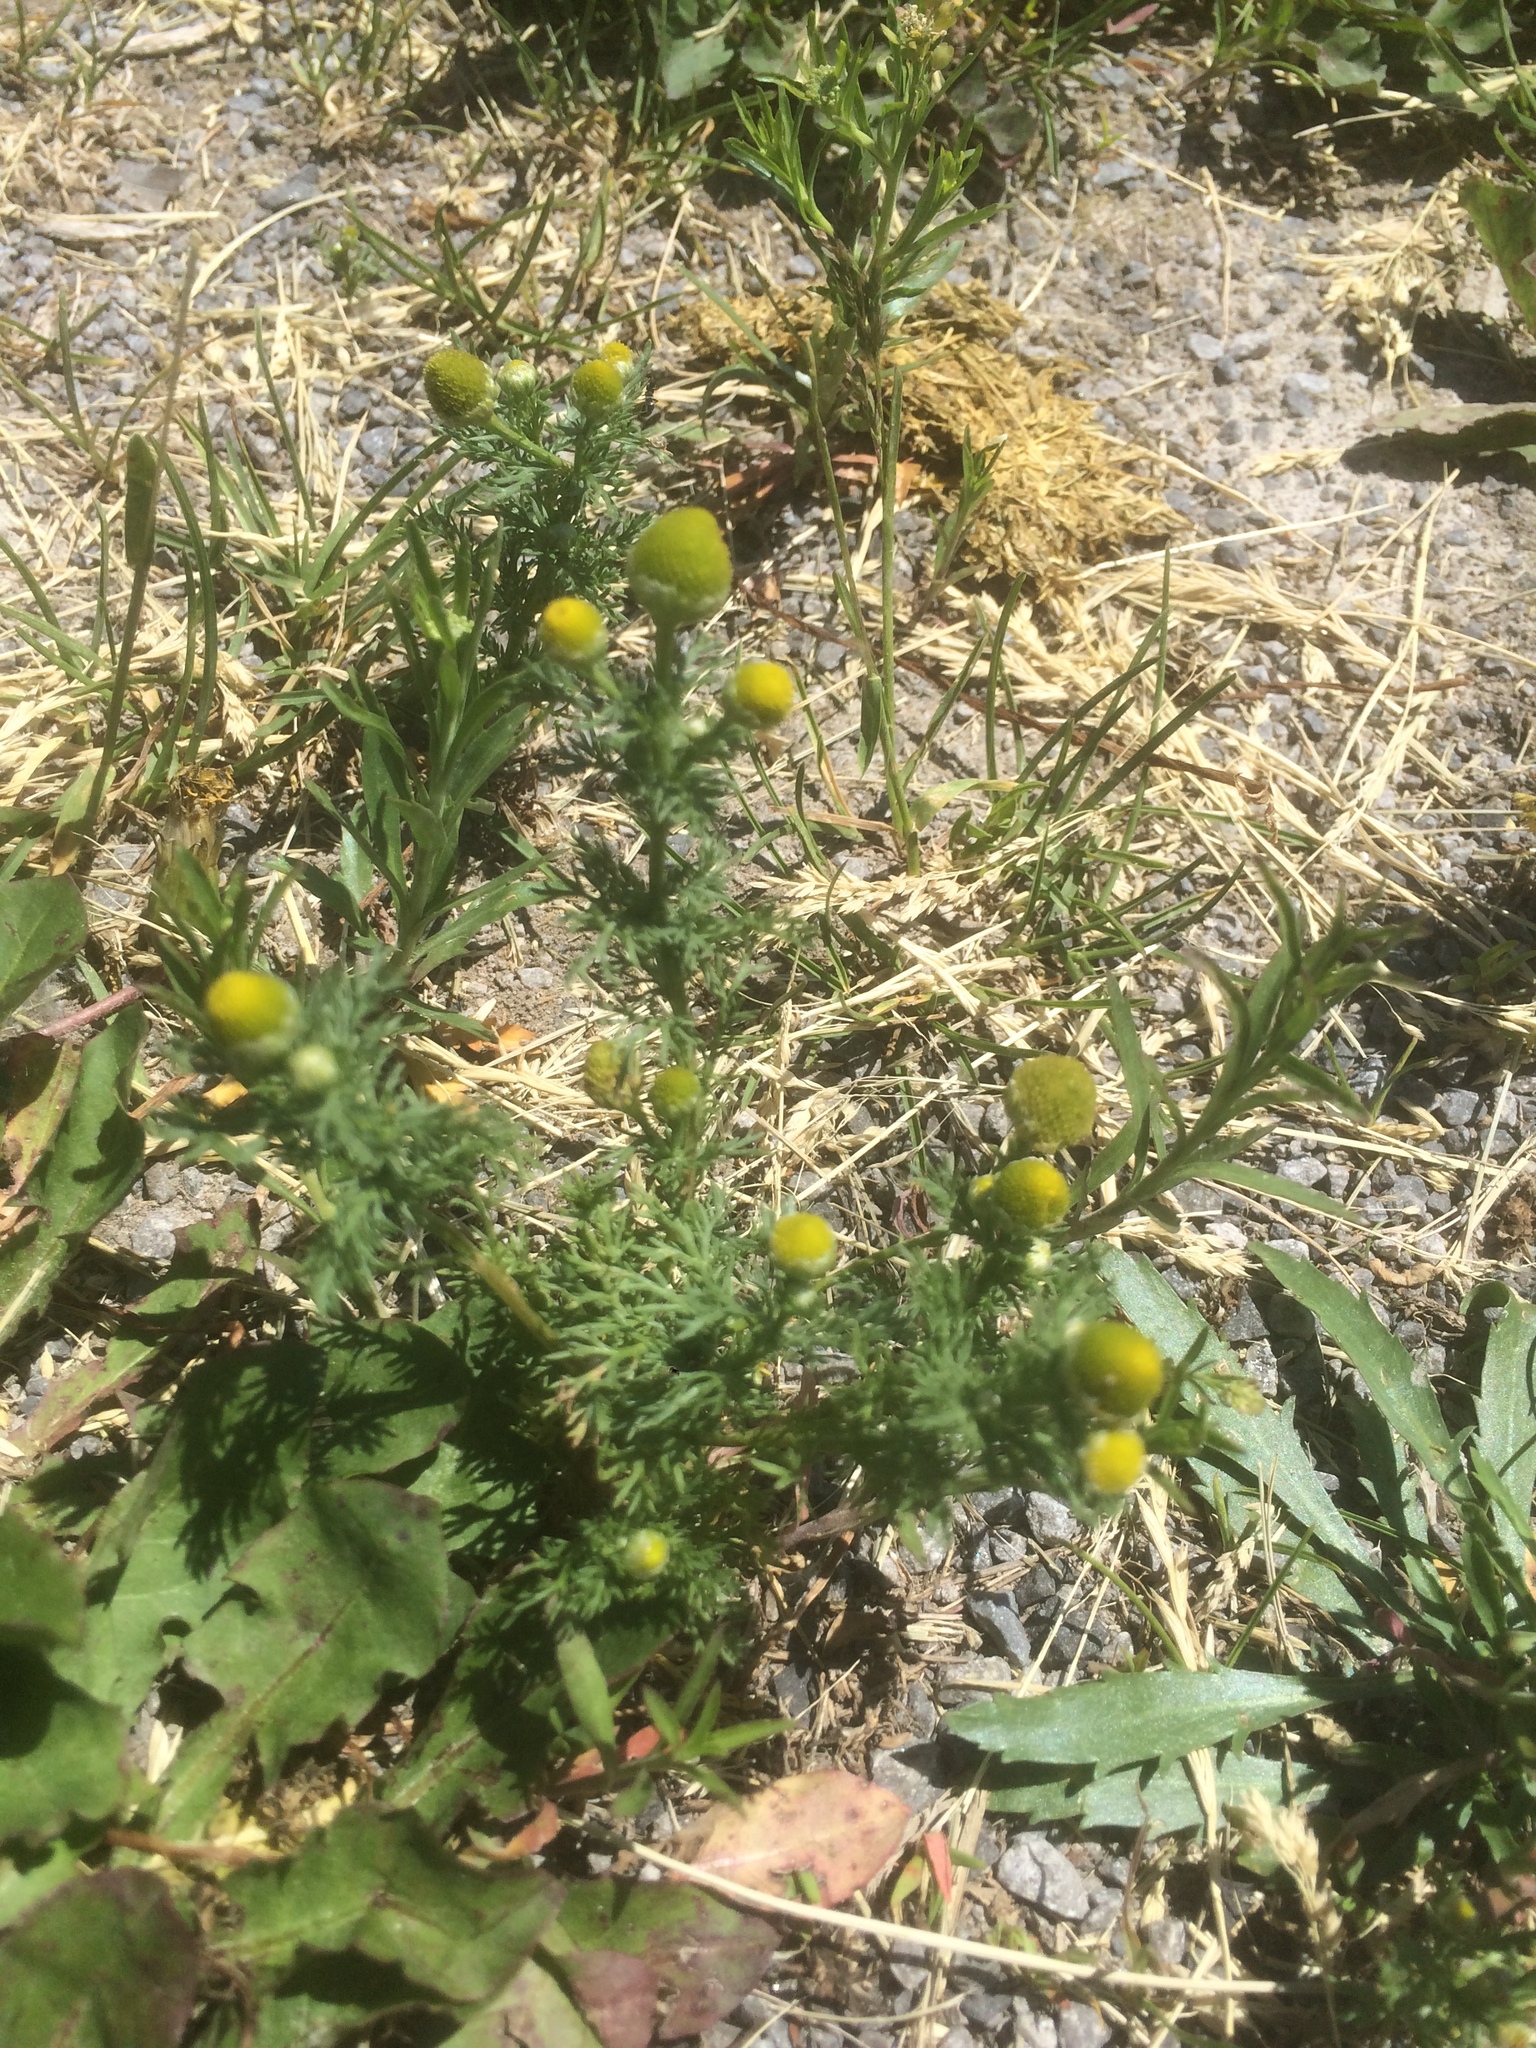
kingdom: Plantae
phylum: Tracheophyta
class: Magnoliopsida
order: Asterales
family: Asteraceae
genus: Matricaria
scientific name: Matricaria discoidea
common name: Disc mayweed
